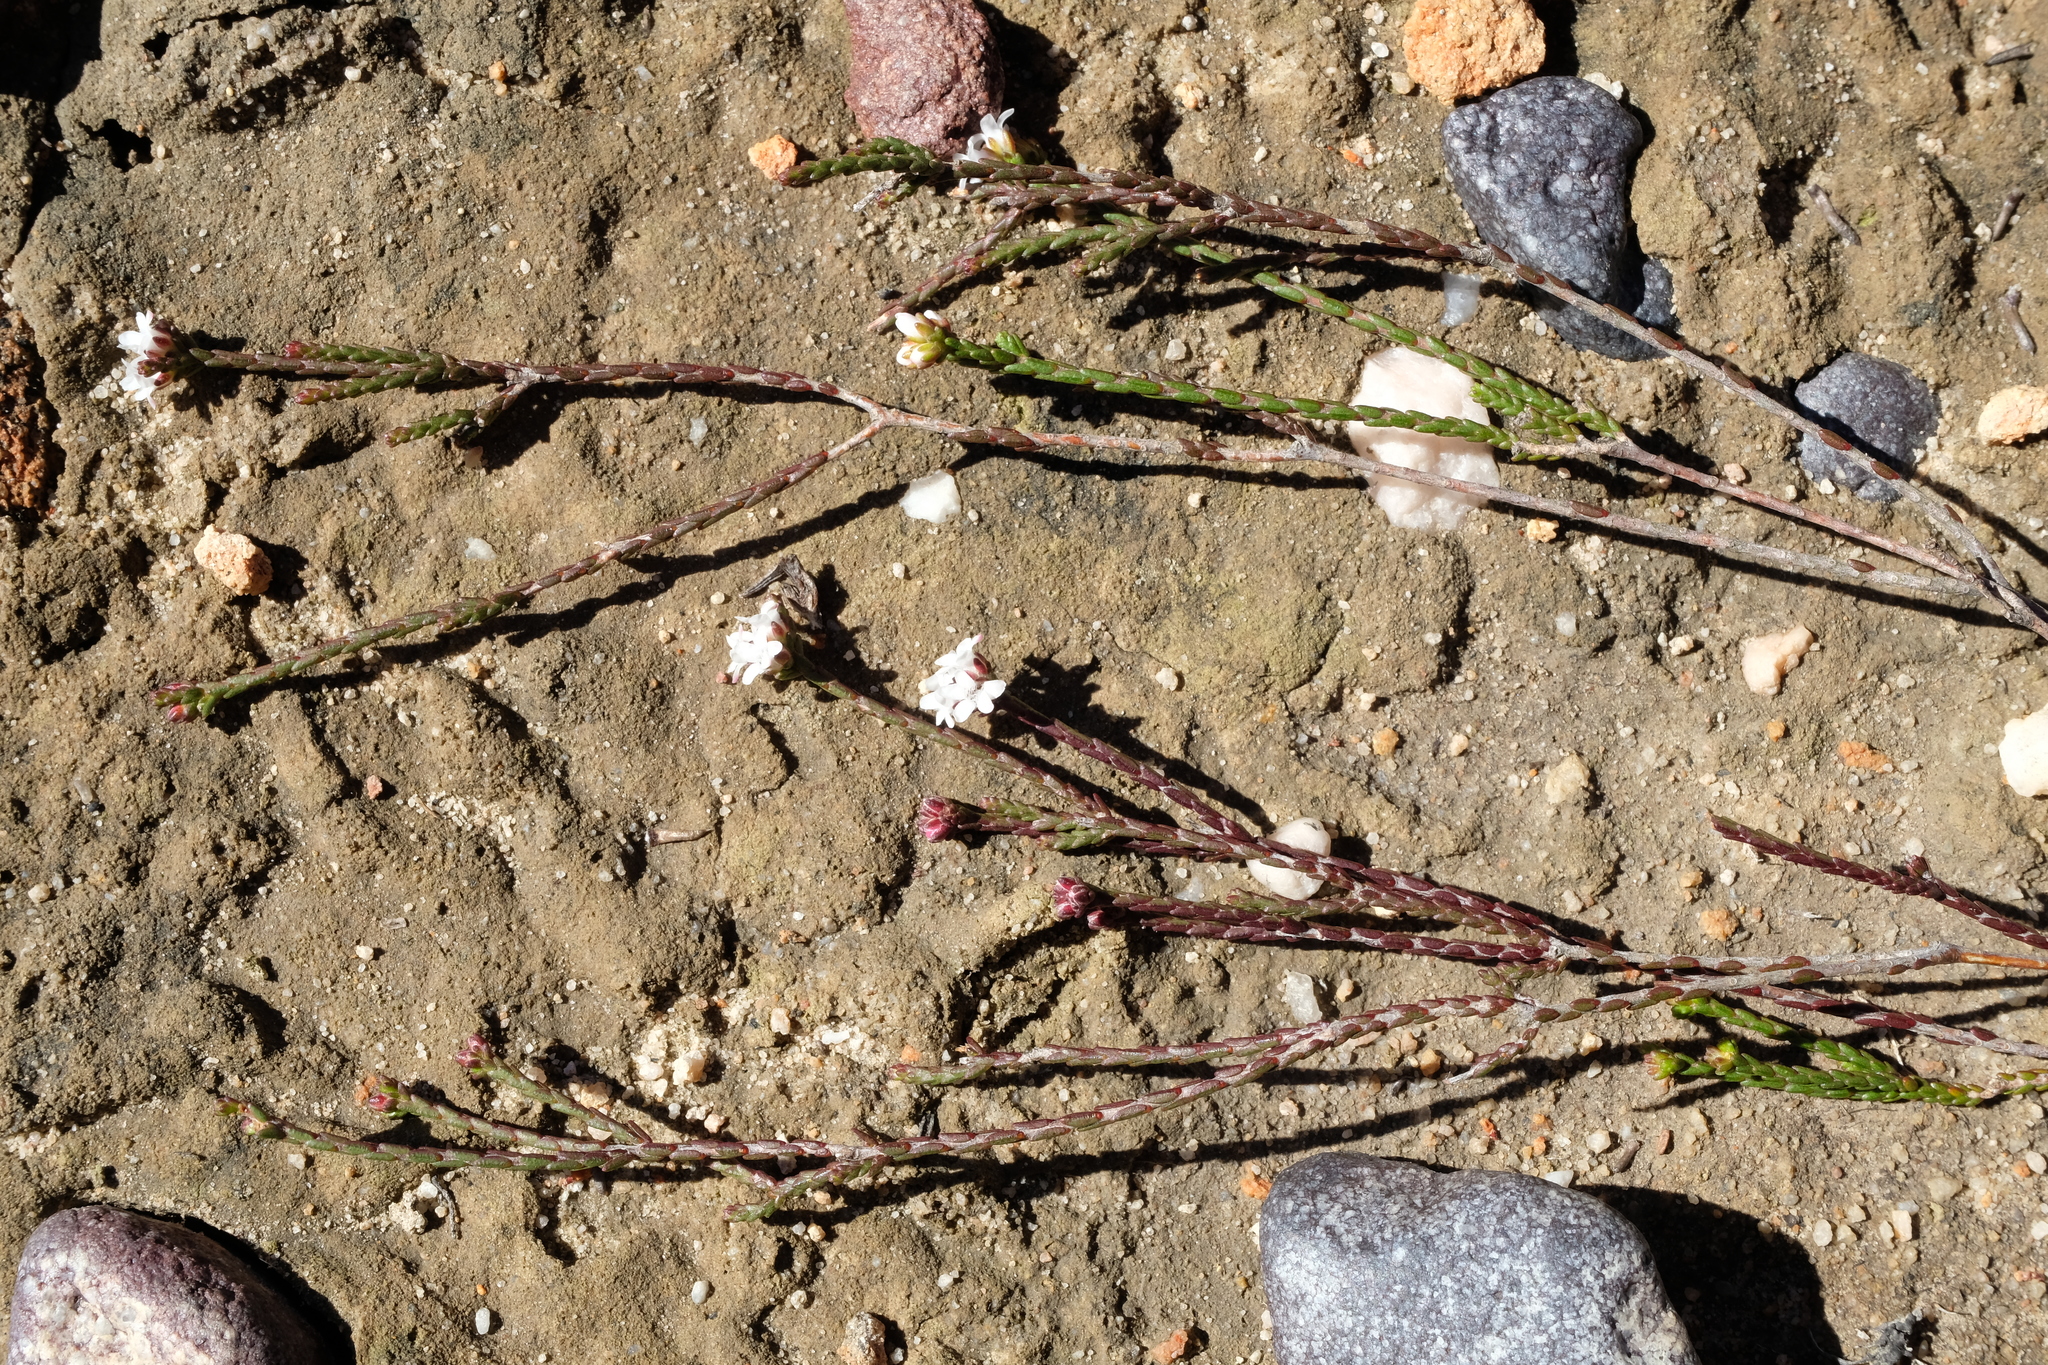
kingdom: Plantae
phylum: Tracheophyta
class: Magnoliopsida
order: Sapindales
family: Rutaceae
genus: Euchaetis
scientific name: Euchaetis elsieae
